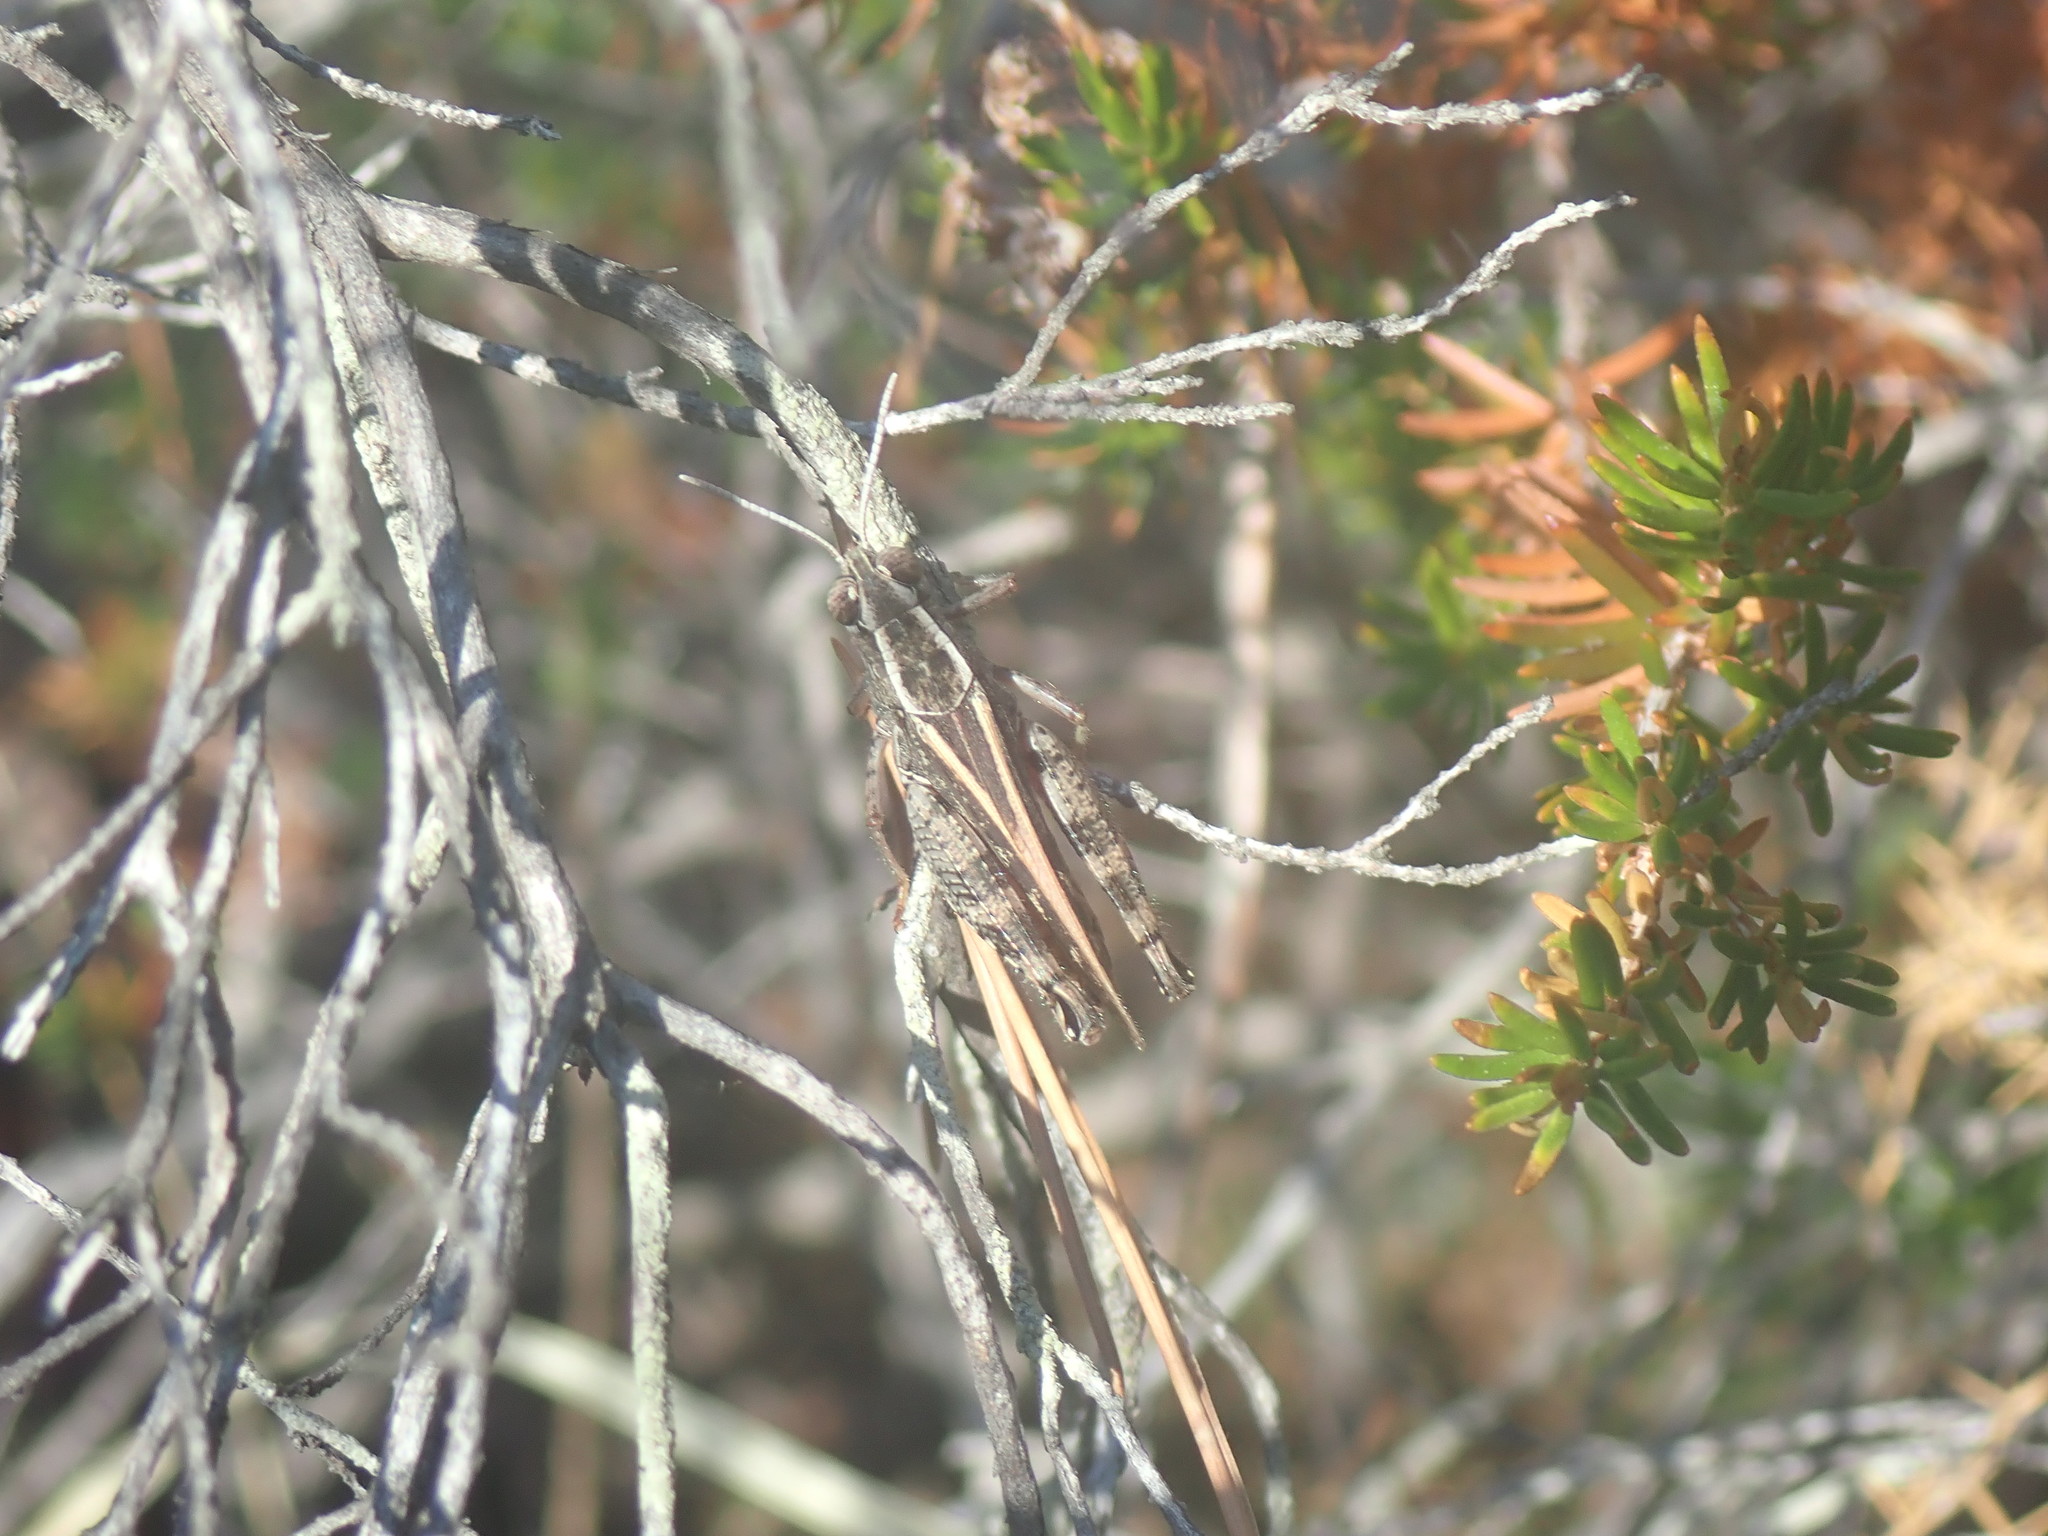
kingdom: Animalia
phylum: Arthropoda
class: Insecta
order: Orthoptera
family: Acrididae
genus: Calliptamus
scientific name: Calliptamus italicus
